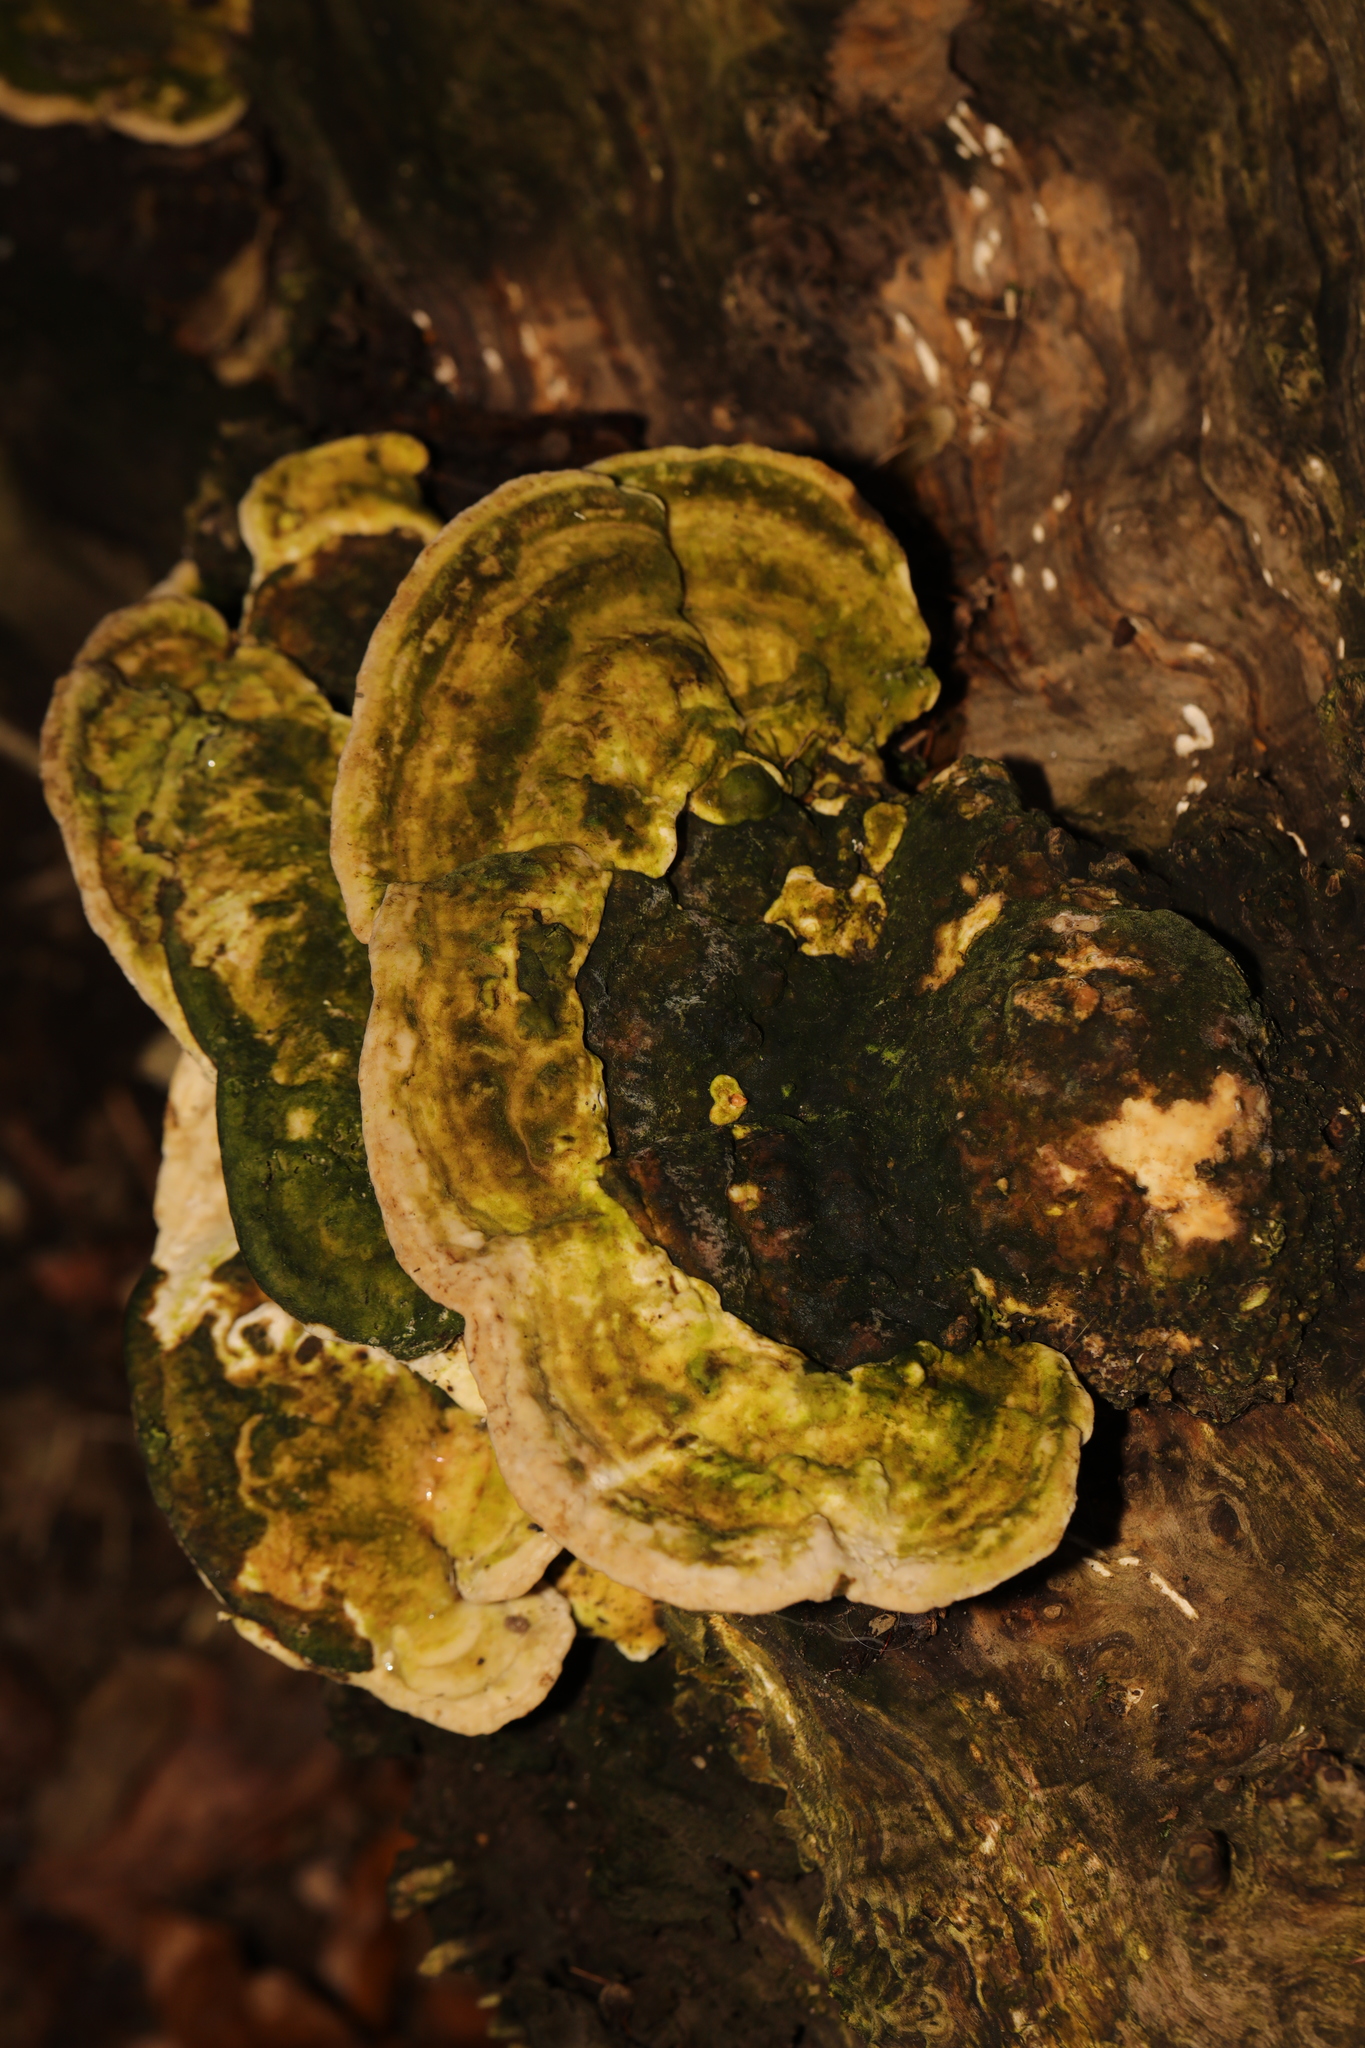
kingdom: Fungi
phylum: Basidiomycota
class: Agaricomycetes
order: Polyporales
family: Polyporaceae
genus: Trametes
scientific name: Trametes gibbosa
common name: Lumpy bracket
